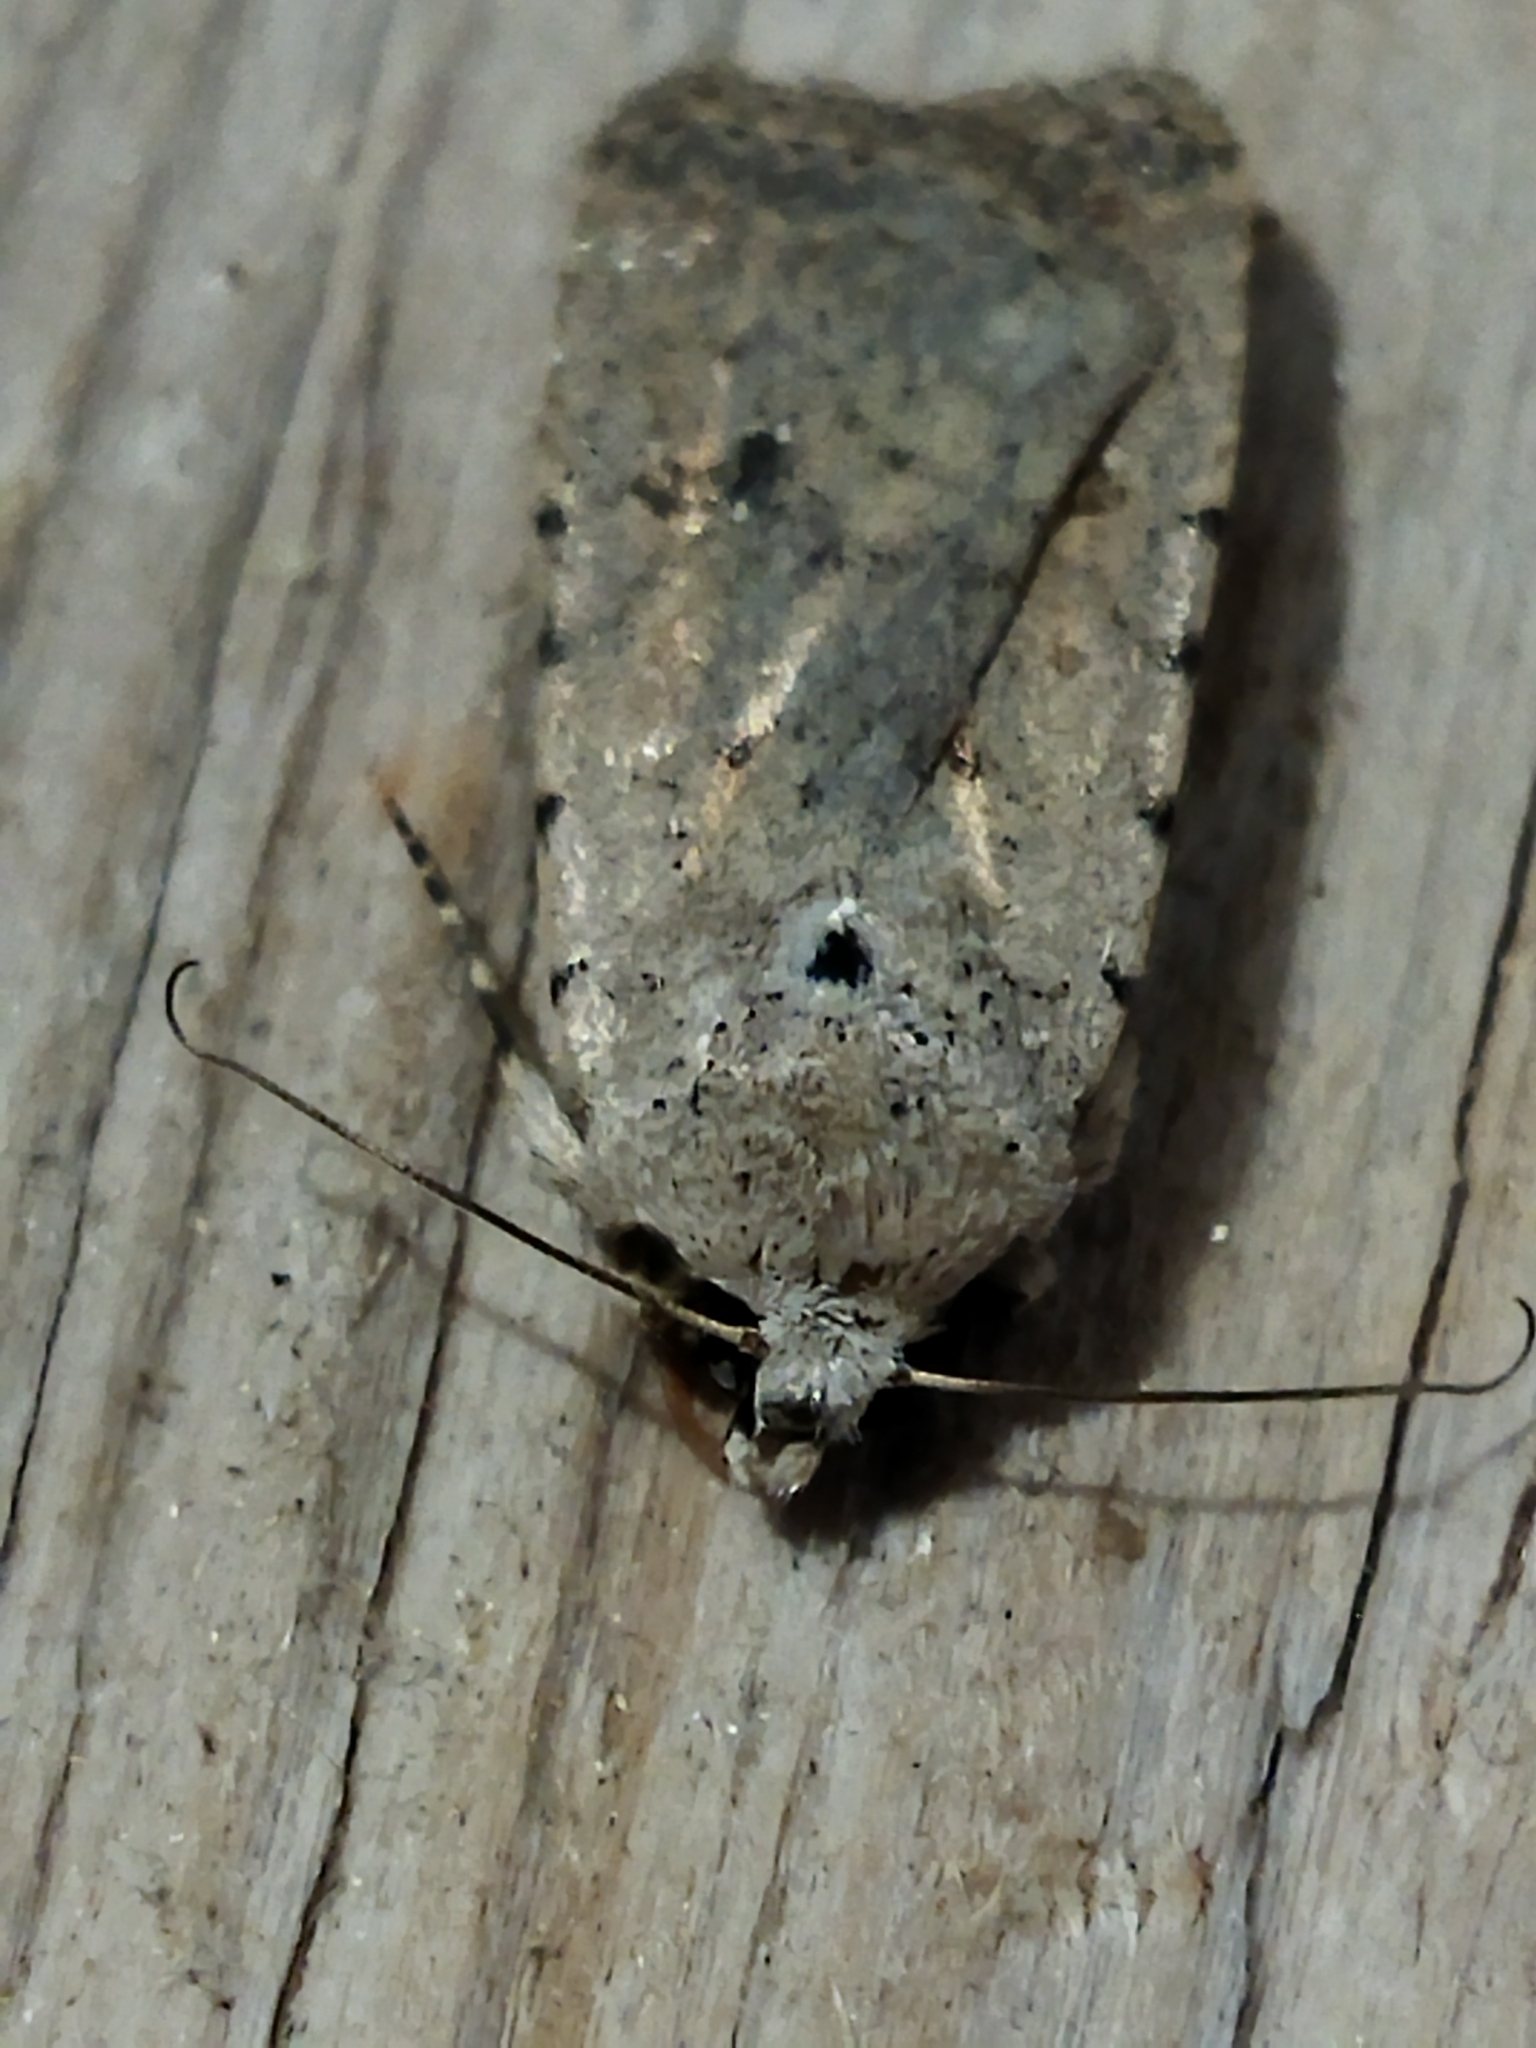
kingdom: Animalia
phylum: Arthropoda
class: Insecta
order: Lepidoptera
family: Noctuidae
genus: Caradrina
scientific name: Caradrina clavipalpis
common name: Pale mottled willow
